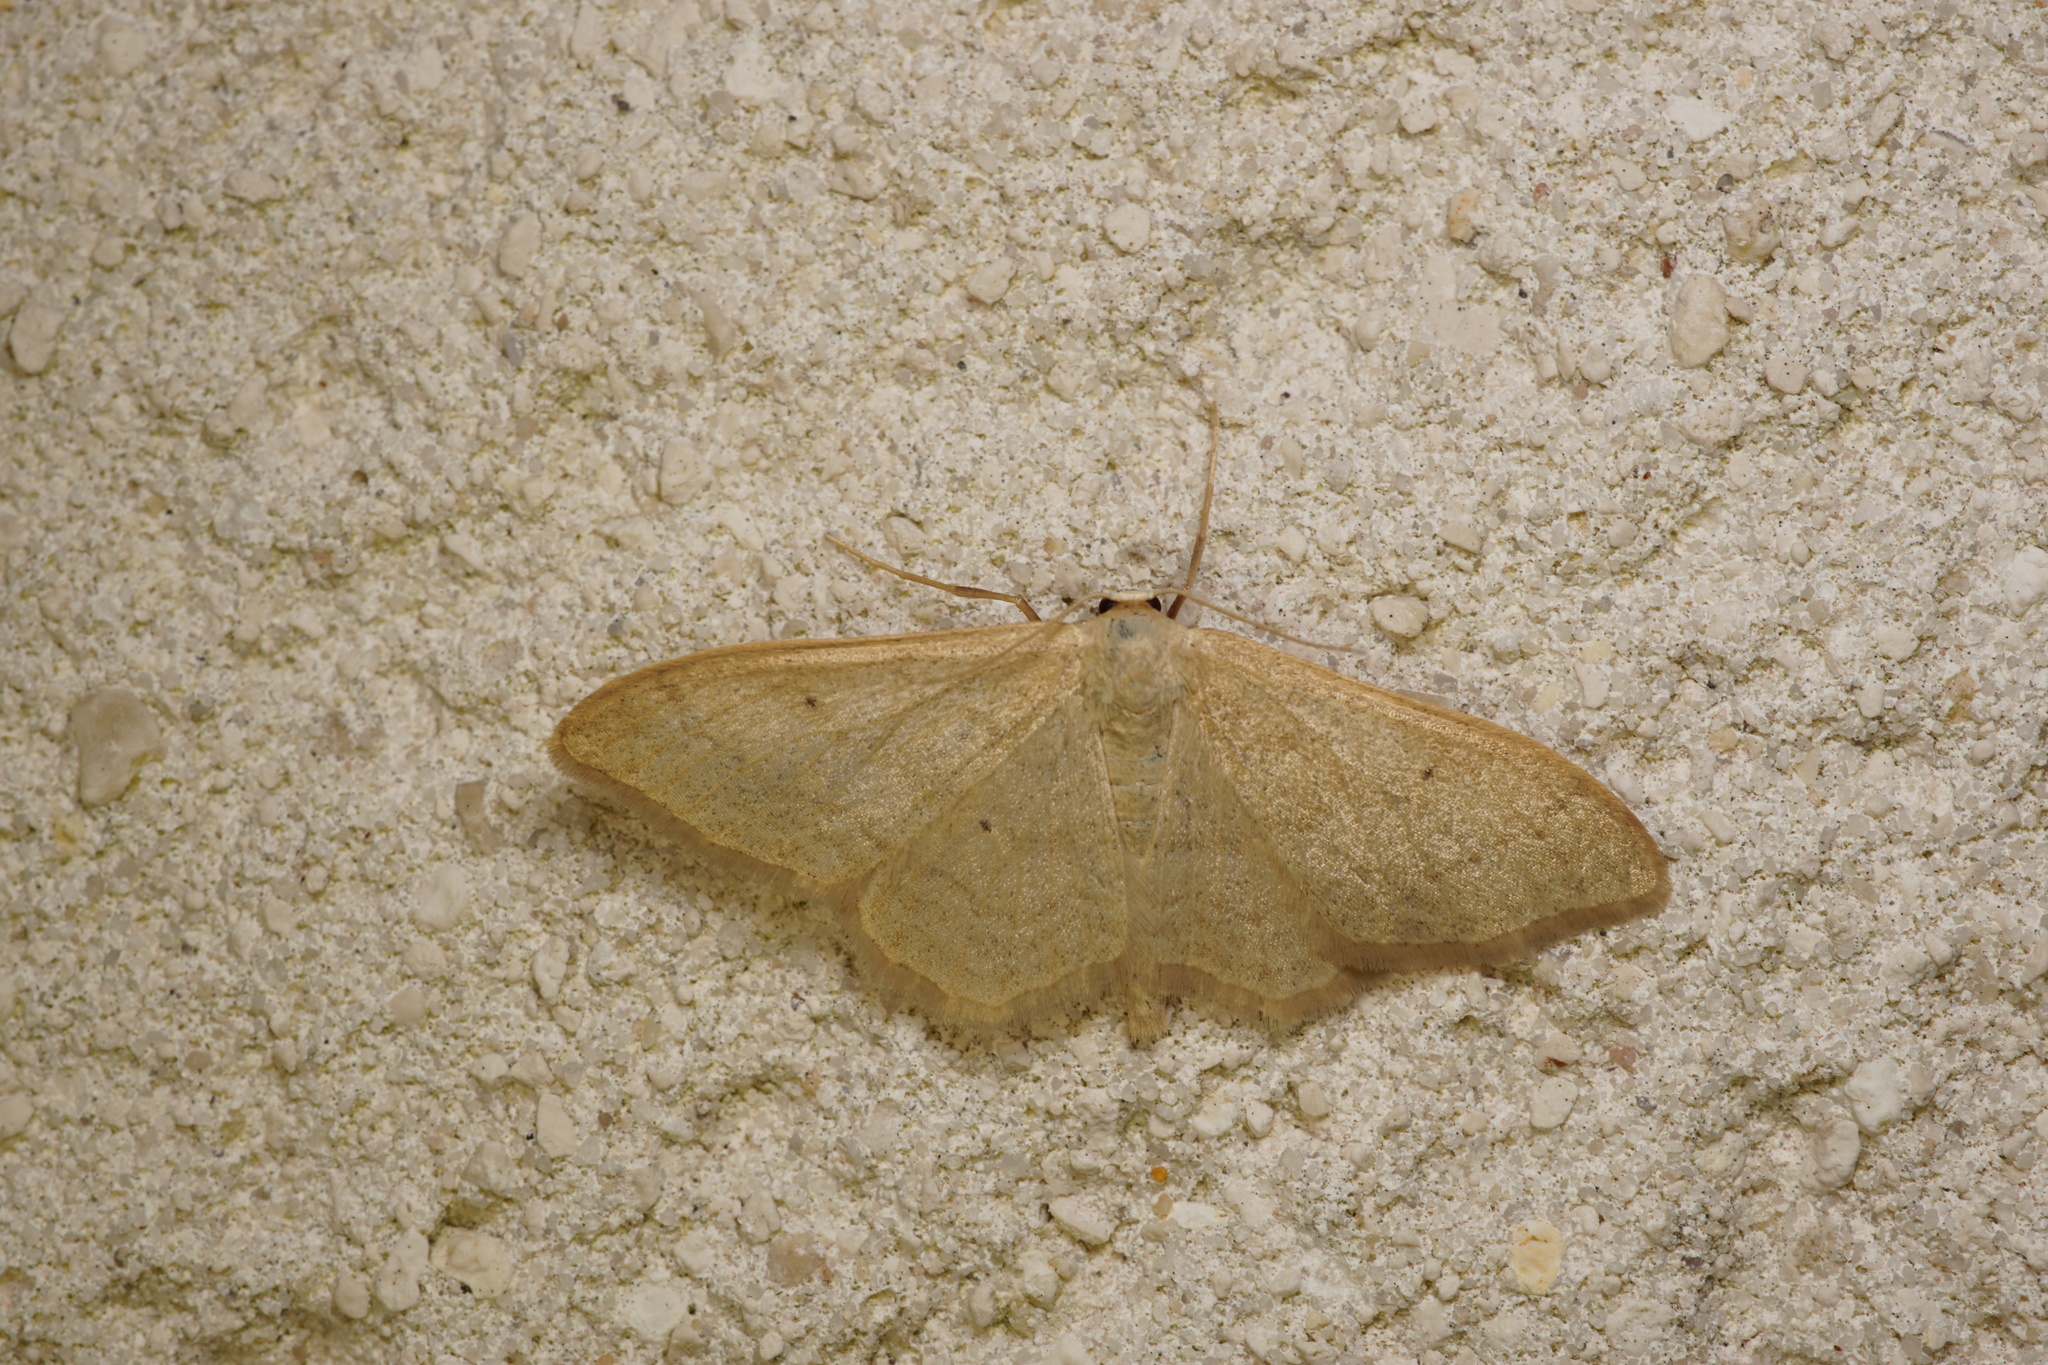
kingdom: Animalia
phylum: Arthropoda
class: Insecta
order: Lepidoptera
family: Geometridae
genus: Idaea
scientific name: Idaea straminata
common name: Plain wave
